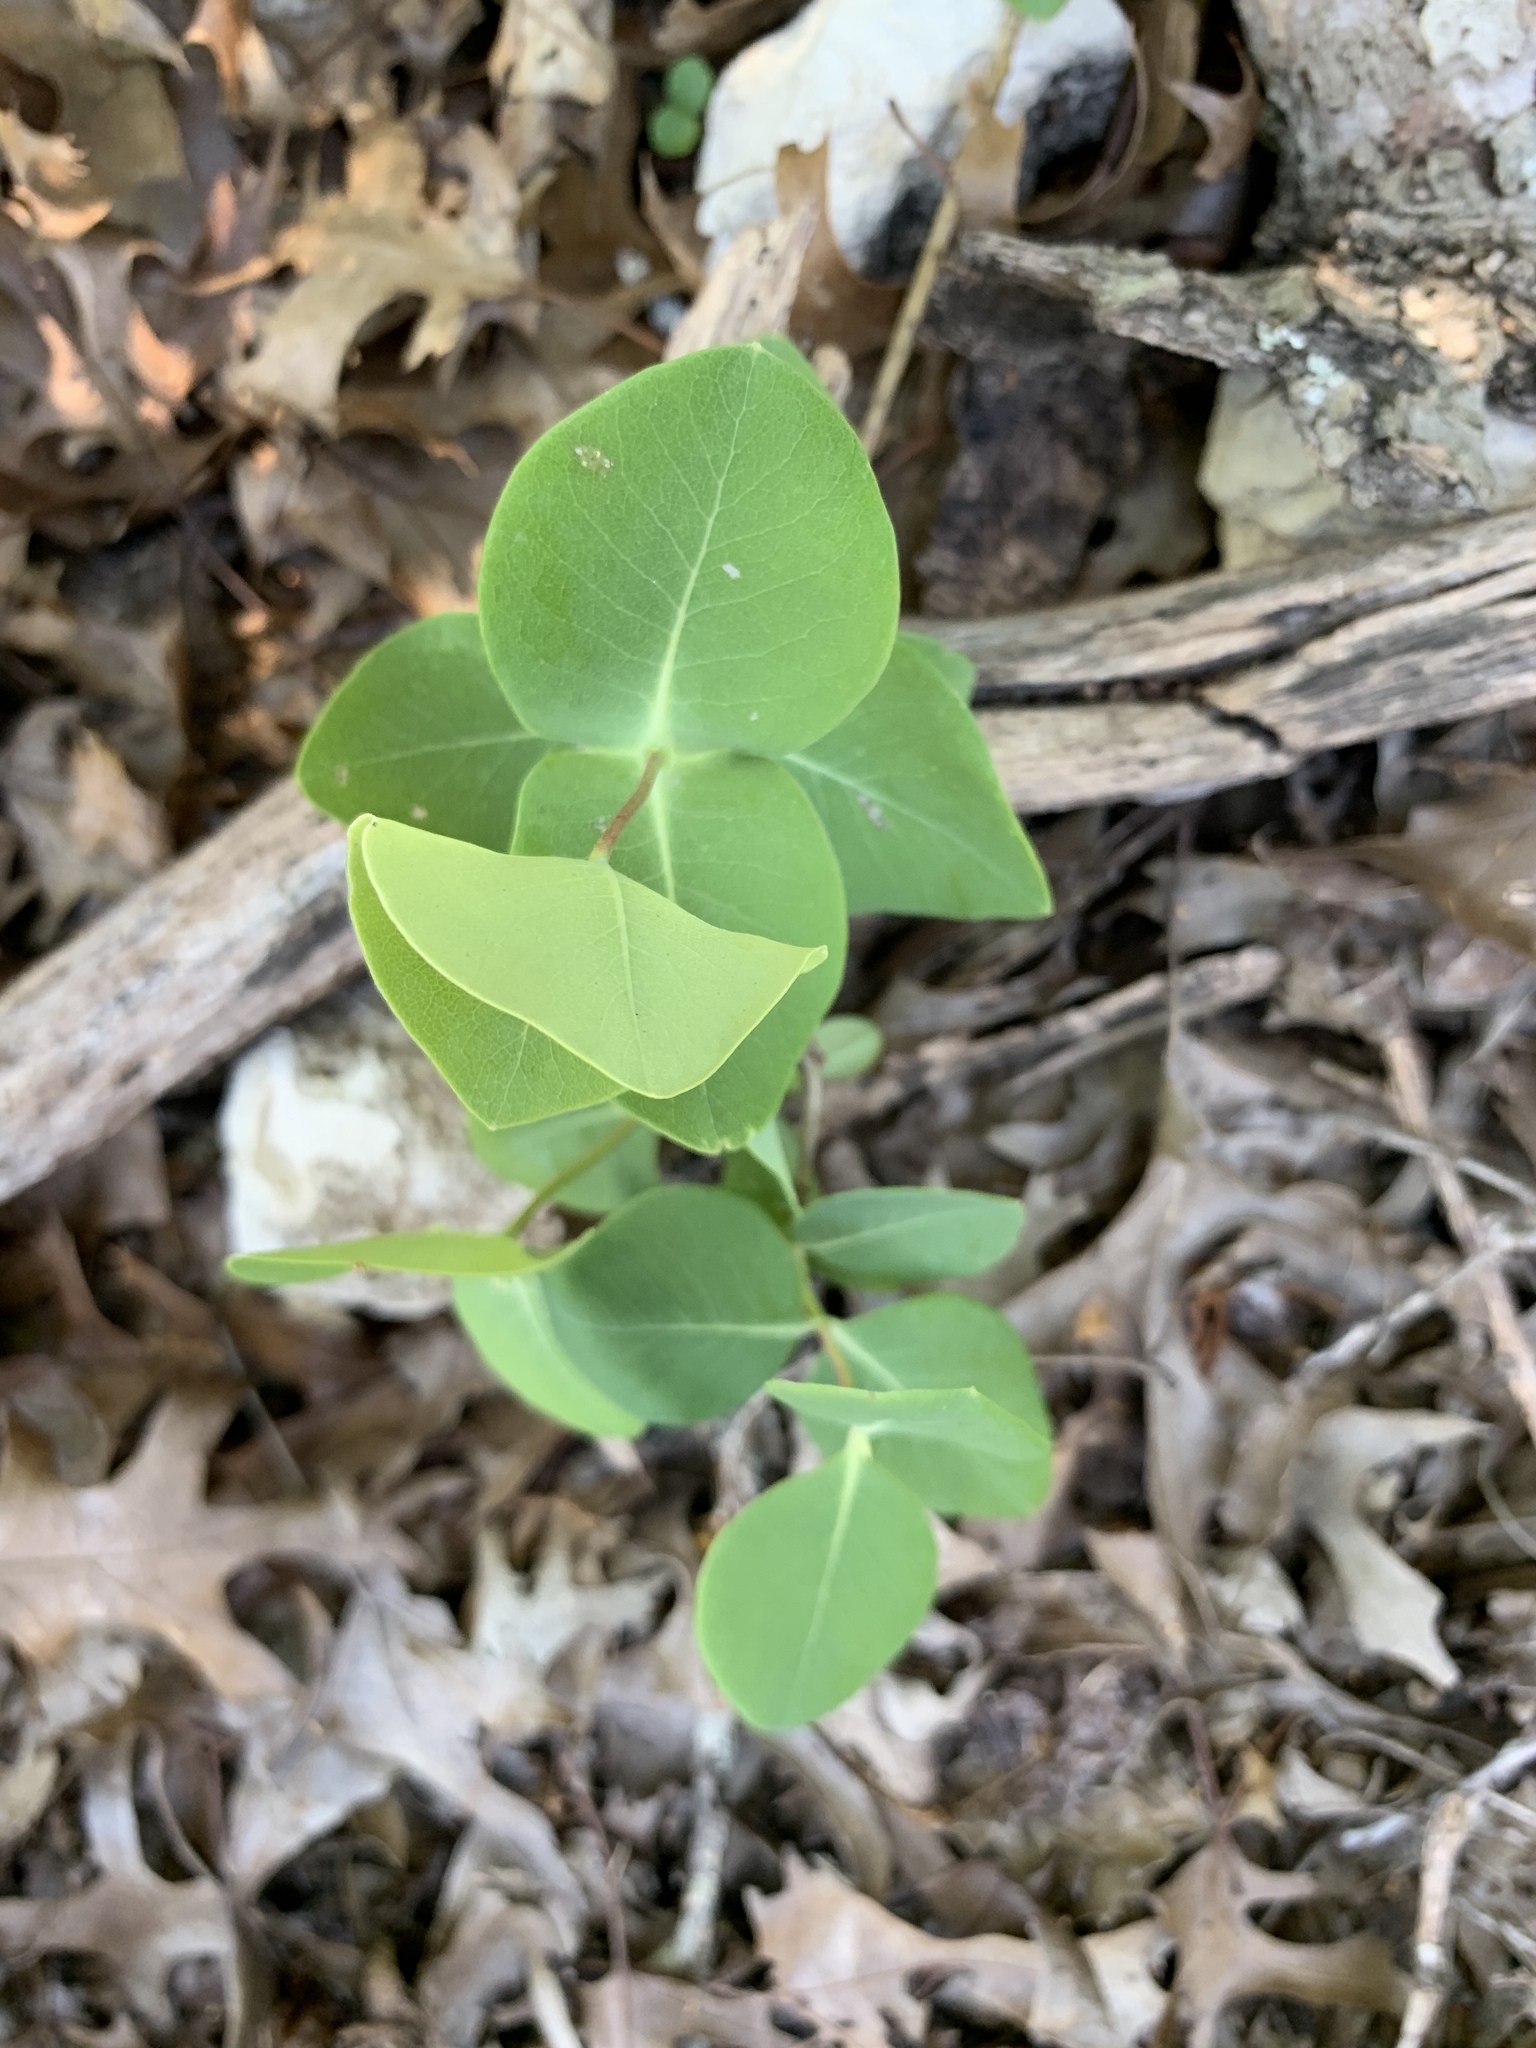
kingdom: Plantae
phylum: Tracheophyta
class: Magnoliopsida
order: Dipsacales
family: Caprifoliaceae
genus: Lonicera
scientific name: Lonicera albiflora
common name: White honeysuckle
